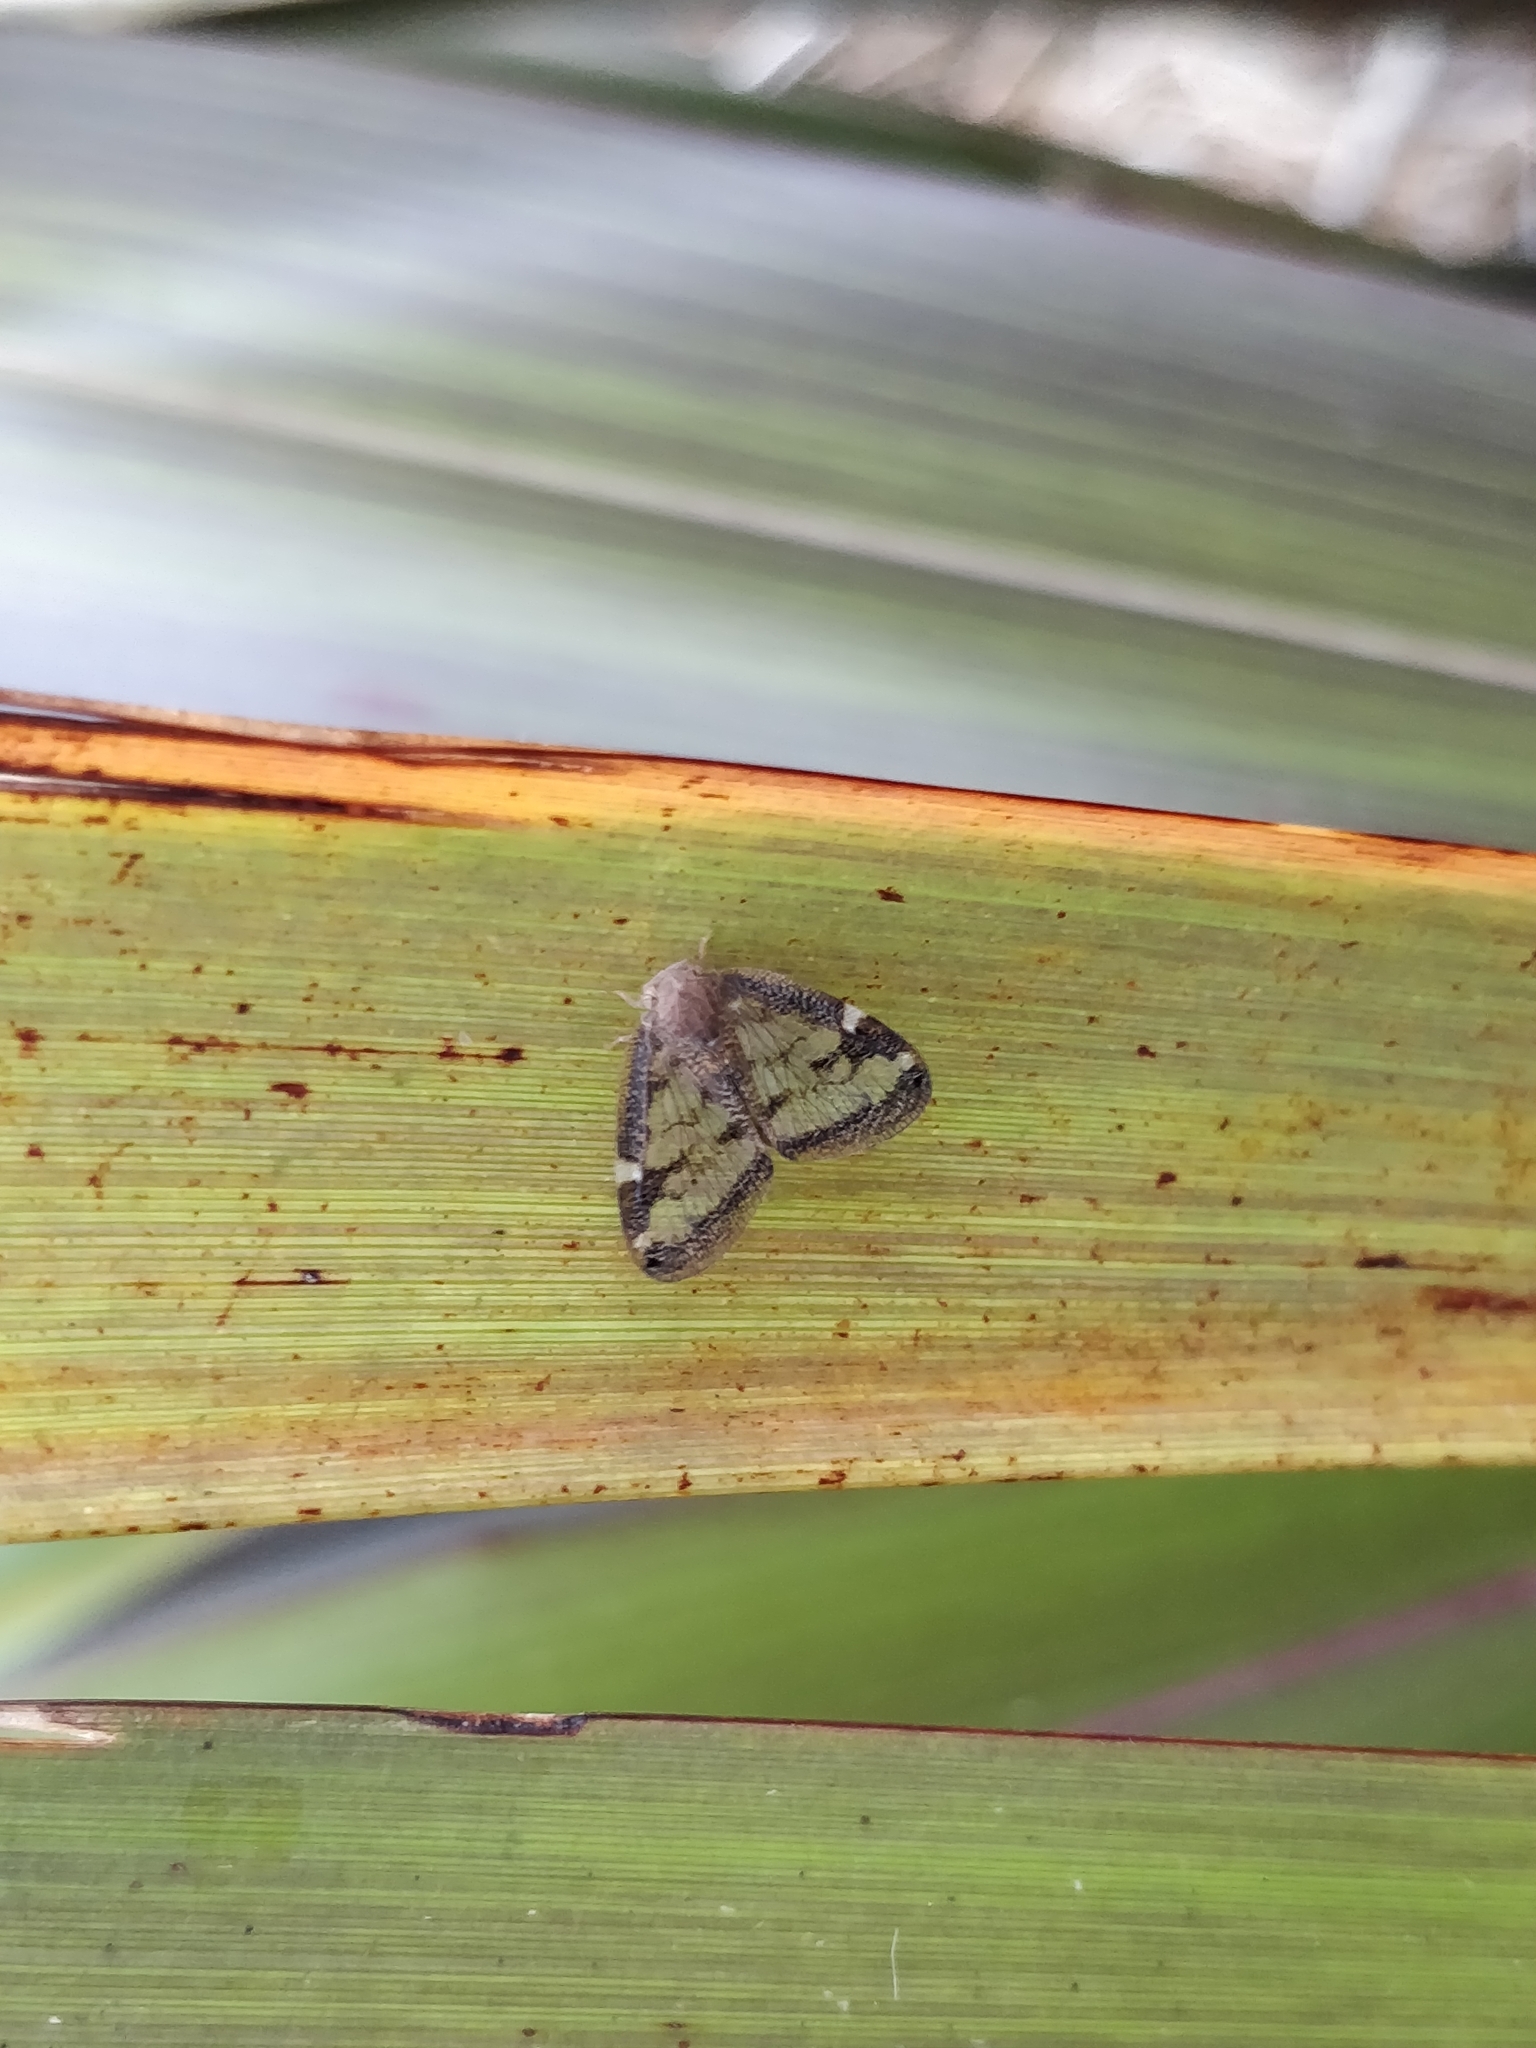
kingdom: Animalia
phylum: Arthropoda
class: Insecta
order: Hemiptera
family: Ricaniidae
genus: Scolypopa
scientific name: Scolypopa australis
